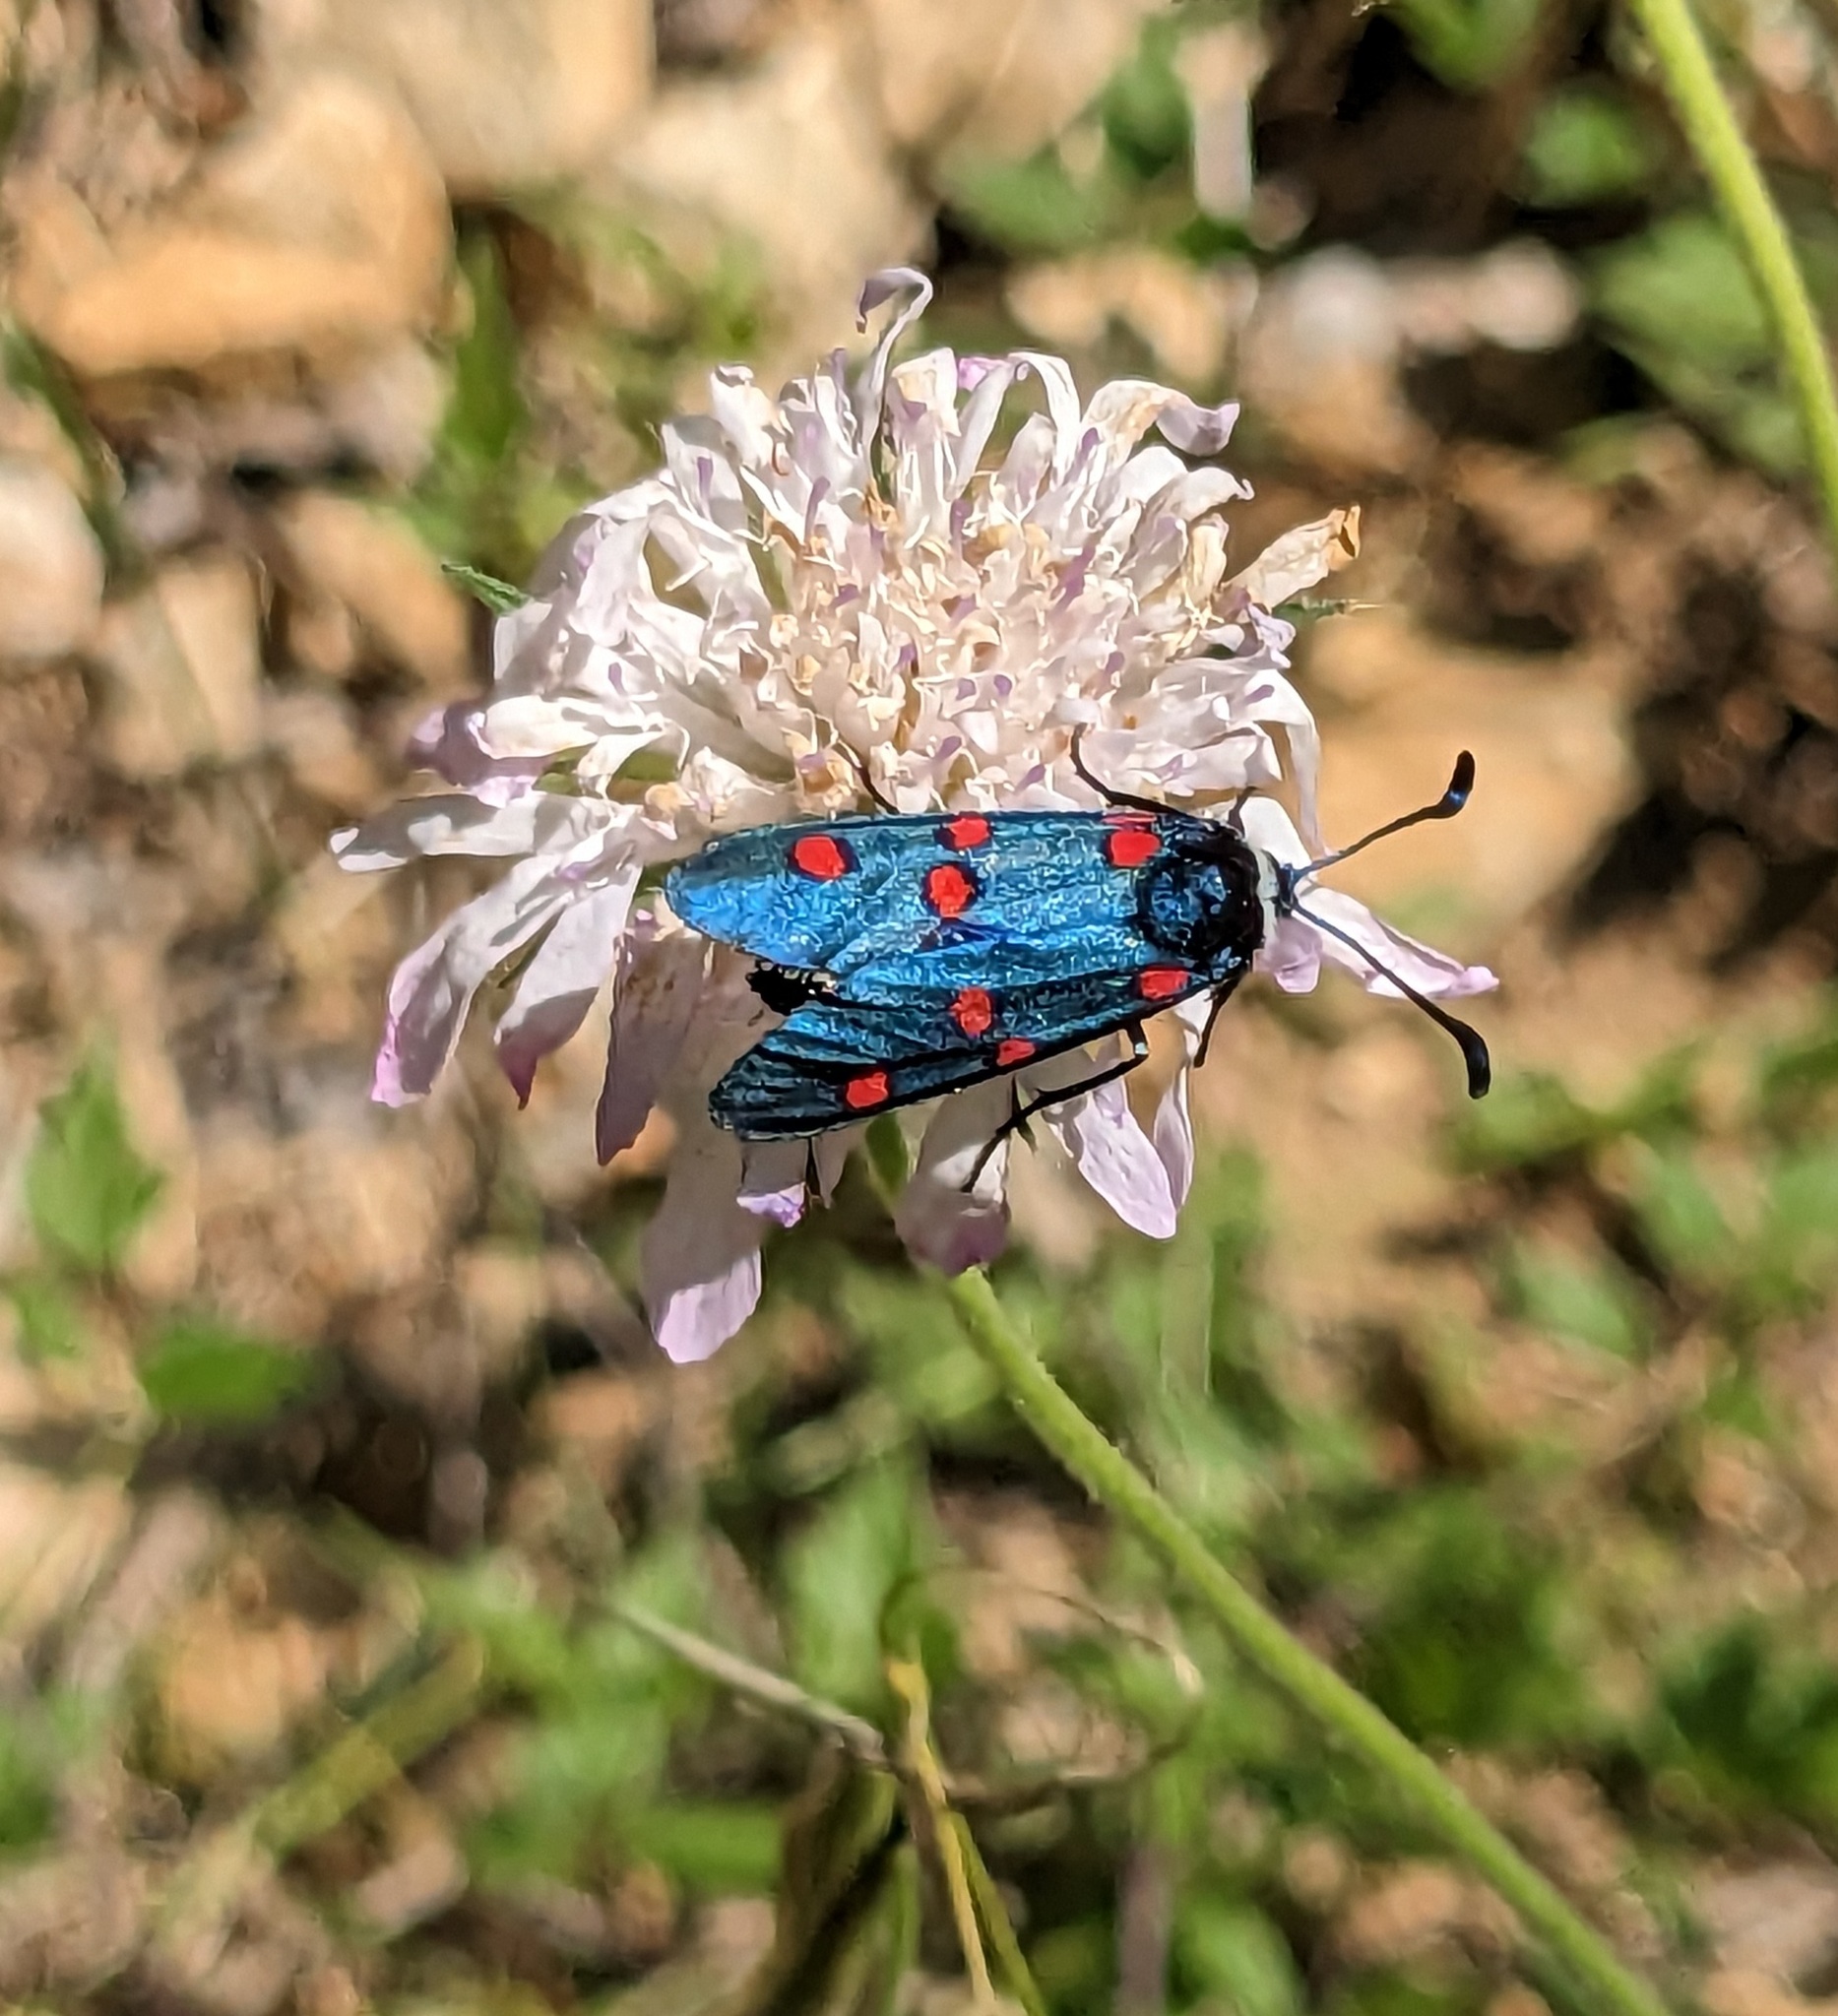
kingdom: Animalia
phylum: Arthropoda
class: Insecta
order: Lepidoptera
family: Zygaenidae
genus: Zygaena
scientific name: Zygaena lavandulae
